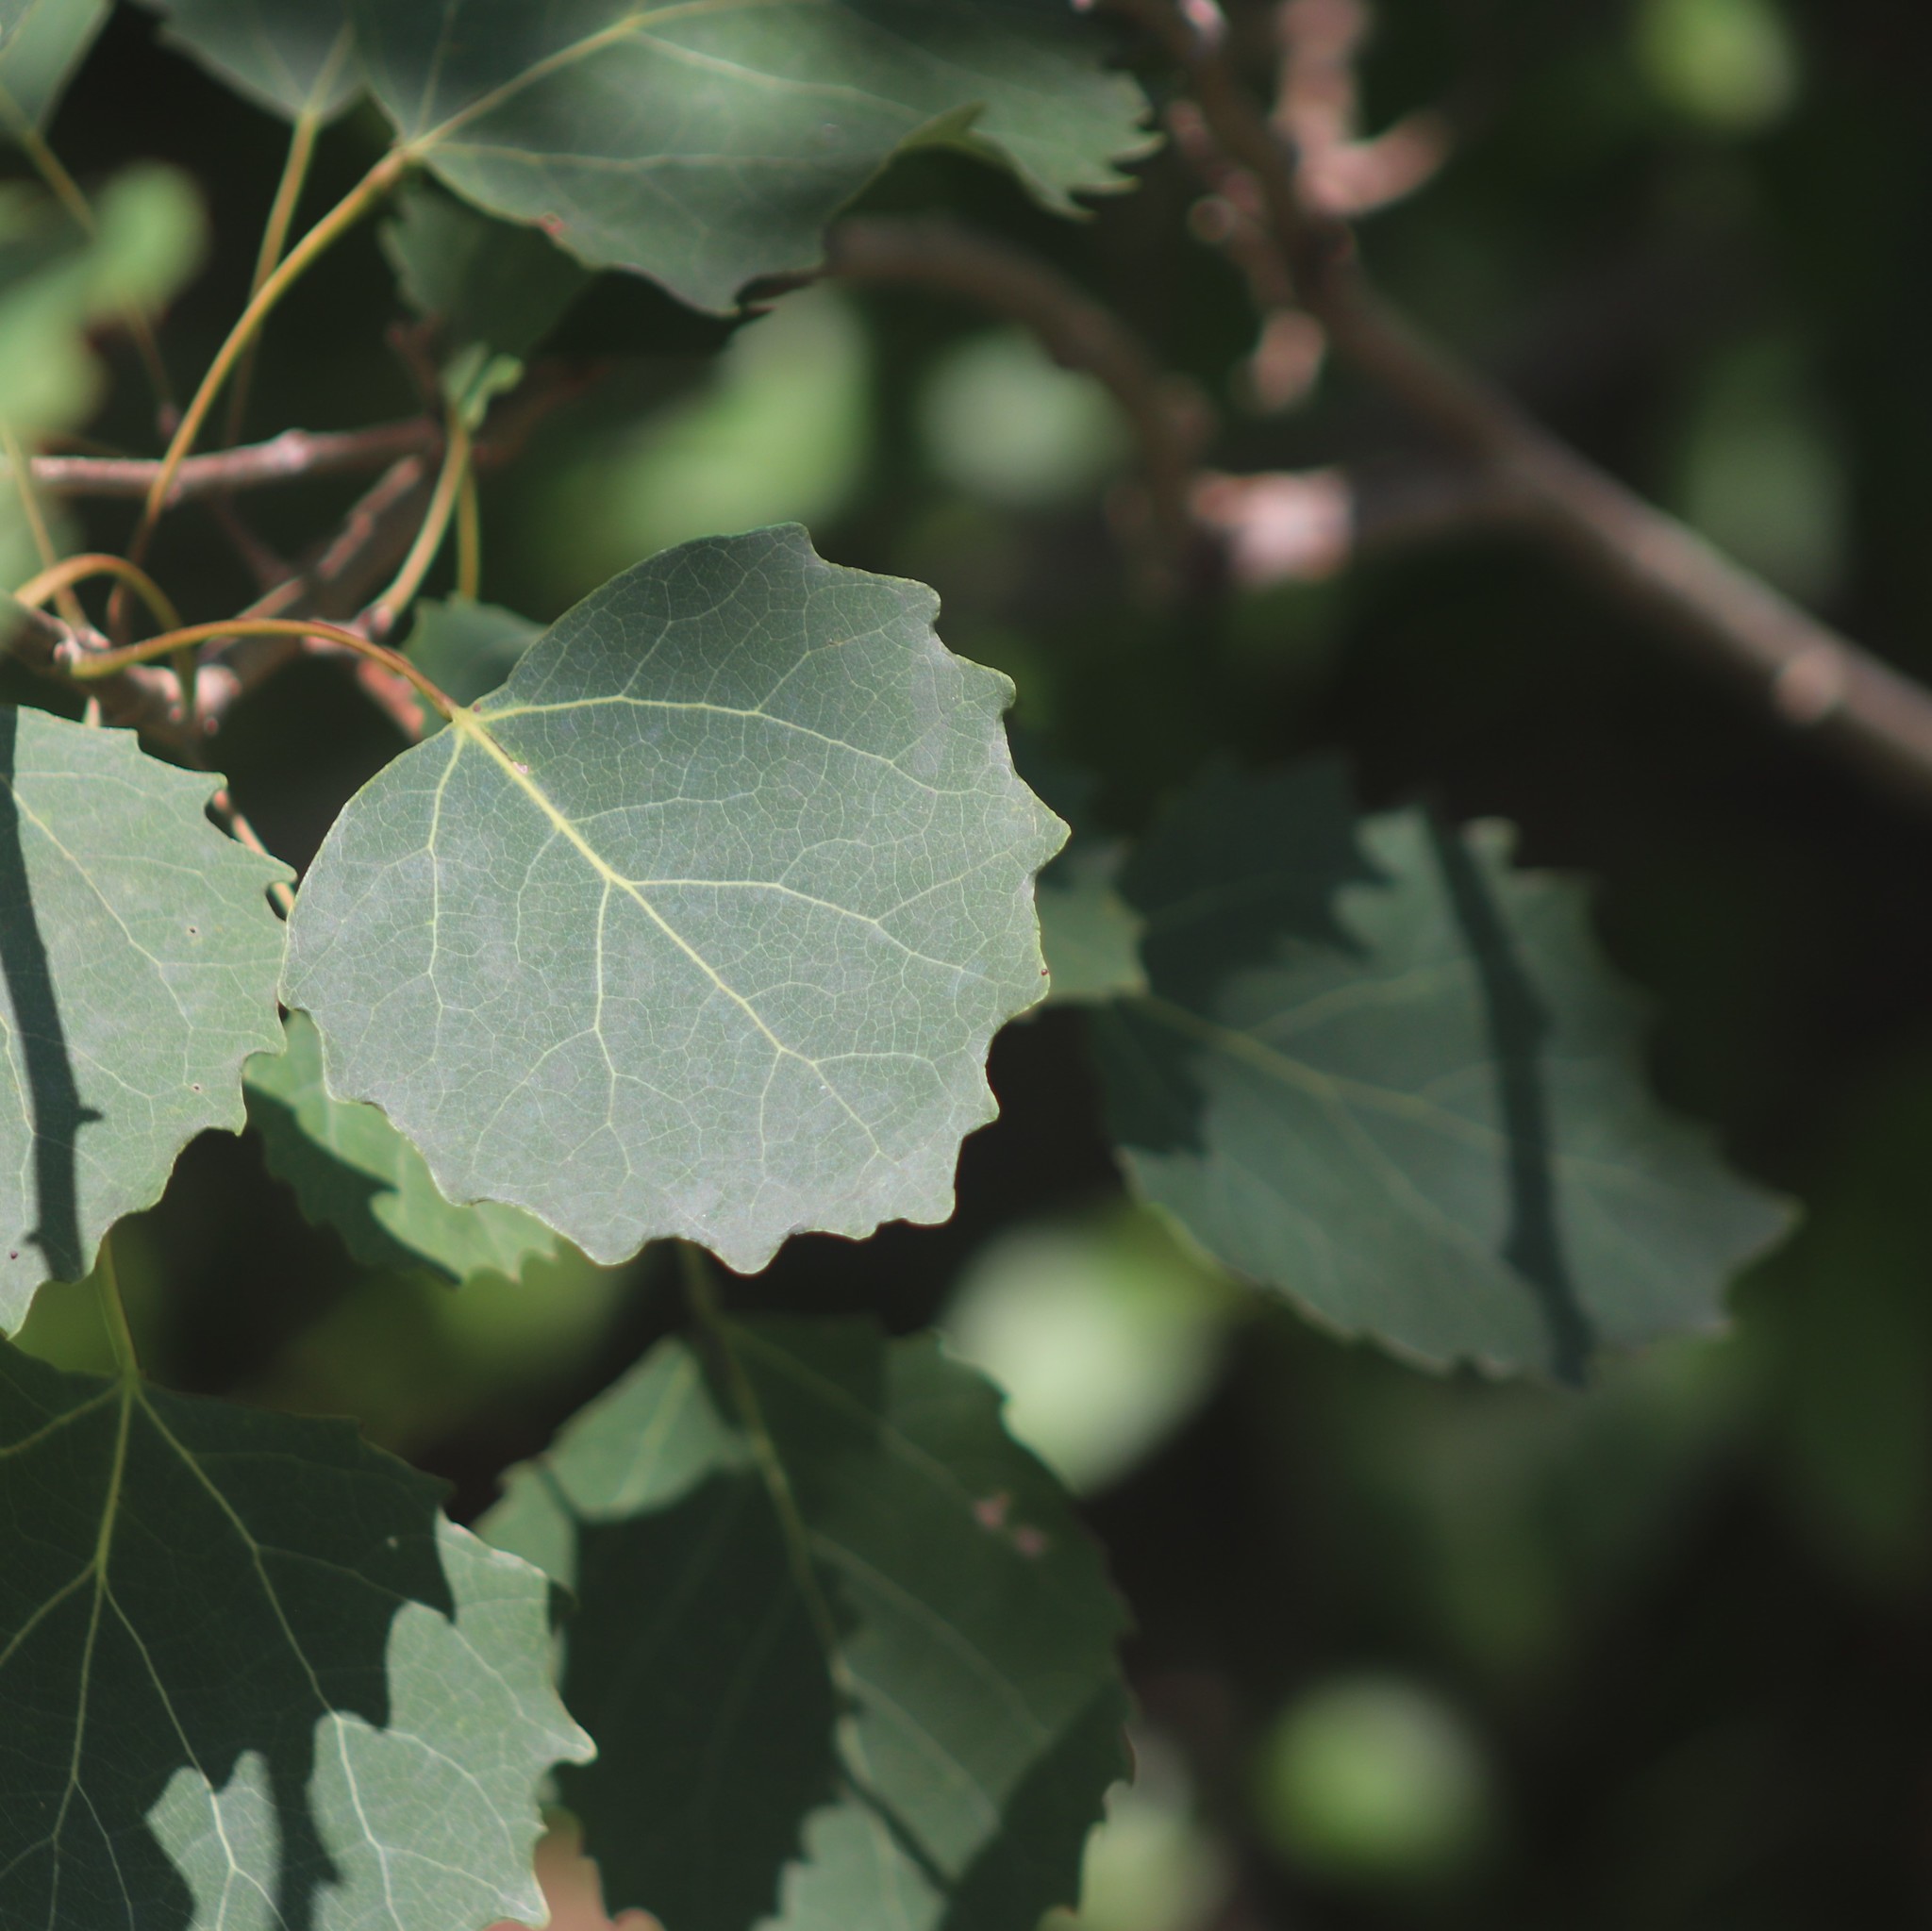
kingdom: Plantae
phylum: Tracheophyta
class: Magnoliopsida
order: Malpighiales
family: Salicaceae
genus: Populus
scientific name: Populus grandidentata
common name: Bigtooth aspen
